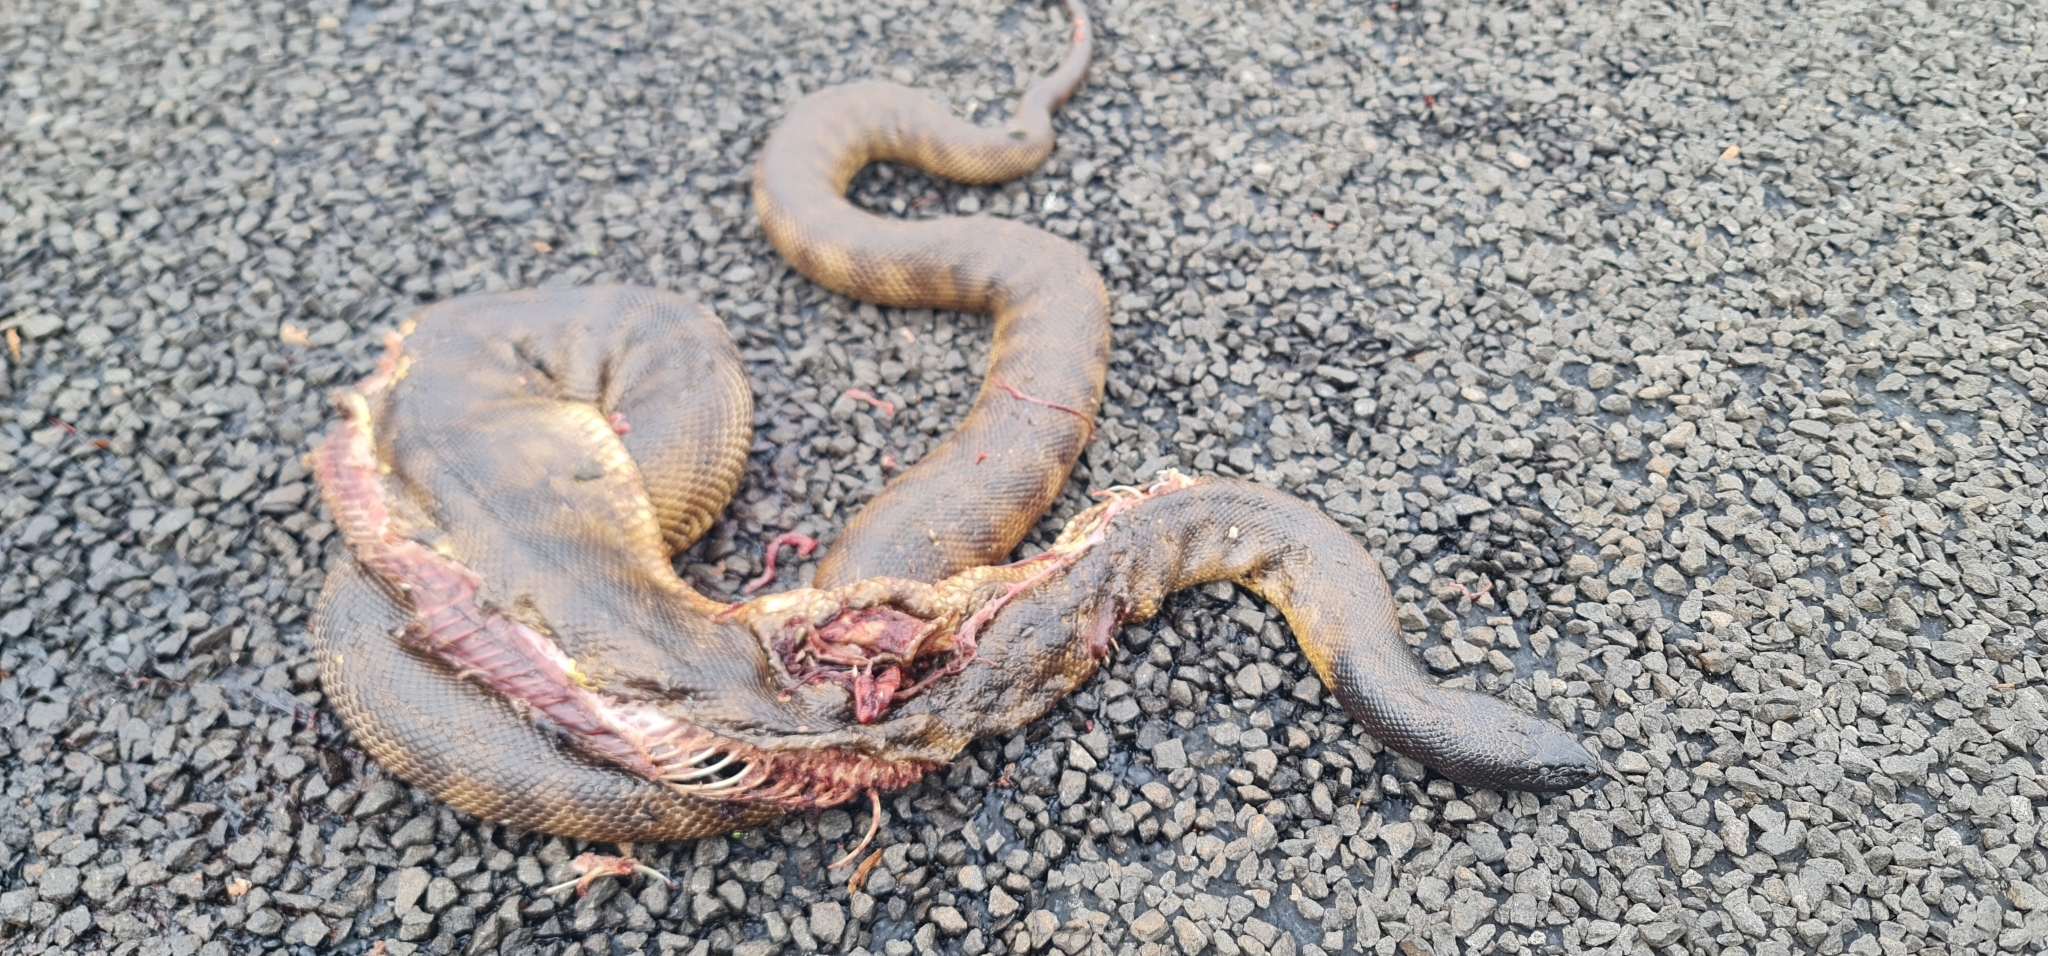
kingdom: Animalia
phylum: Chordata
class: Squamata
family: Pythonidae
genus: Aspidites
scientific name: Aspidites melanocephalus
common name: Black-headed python
